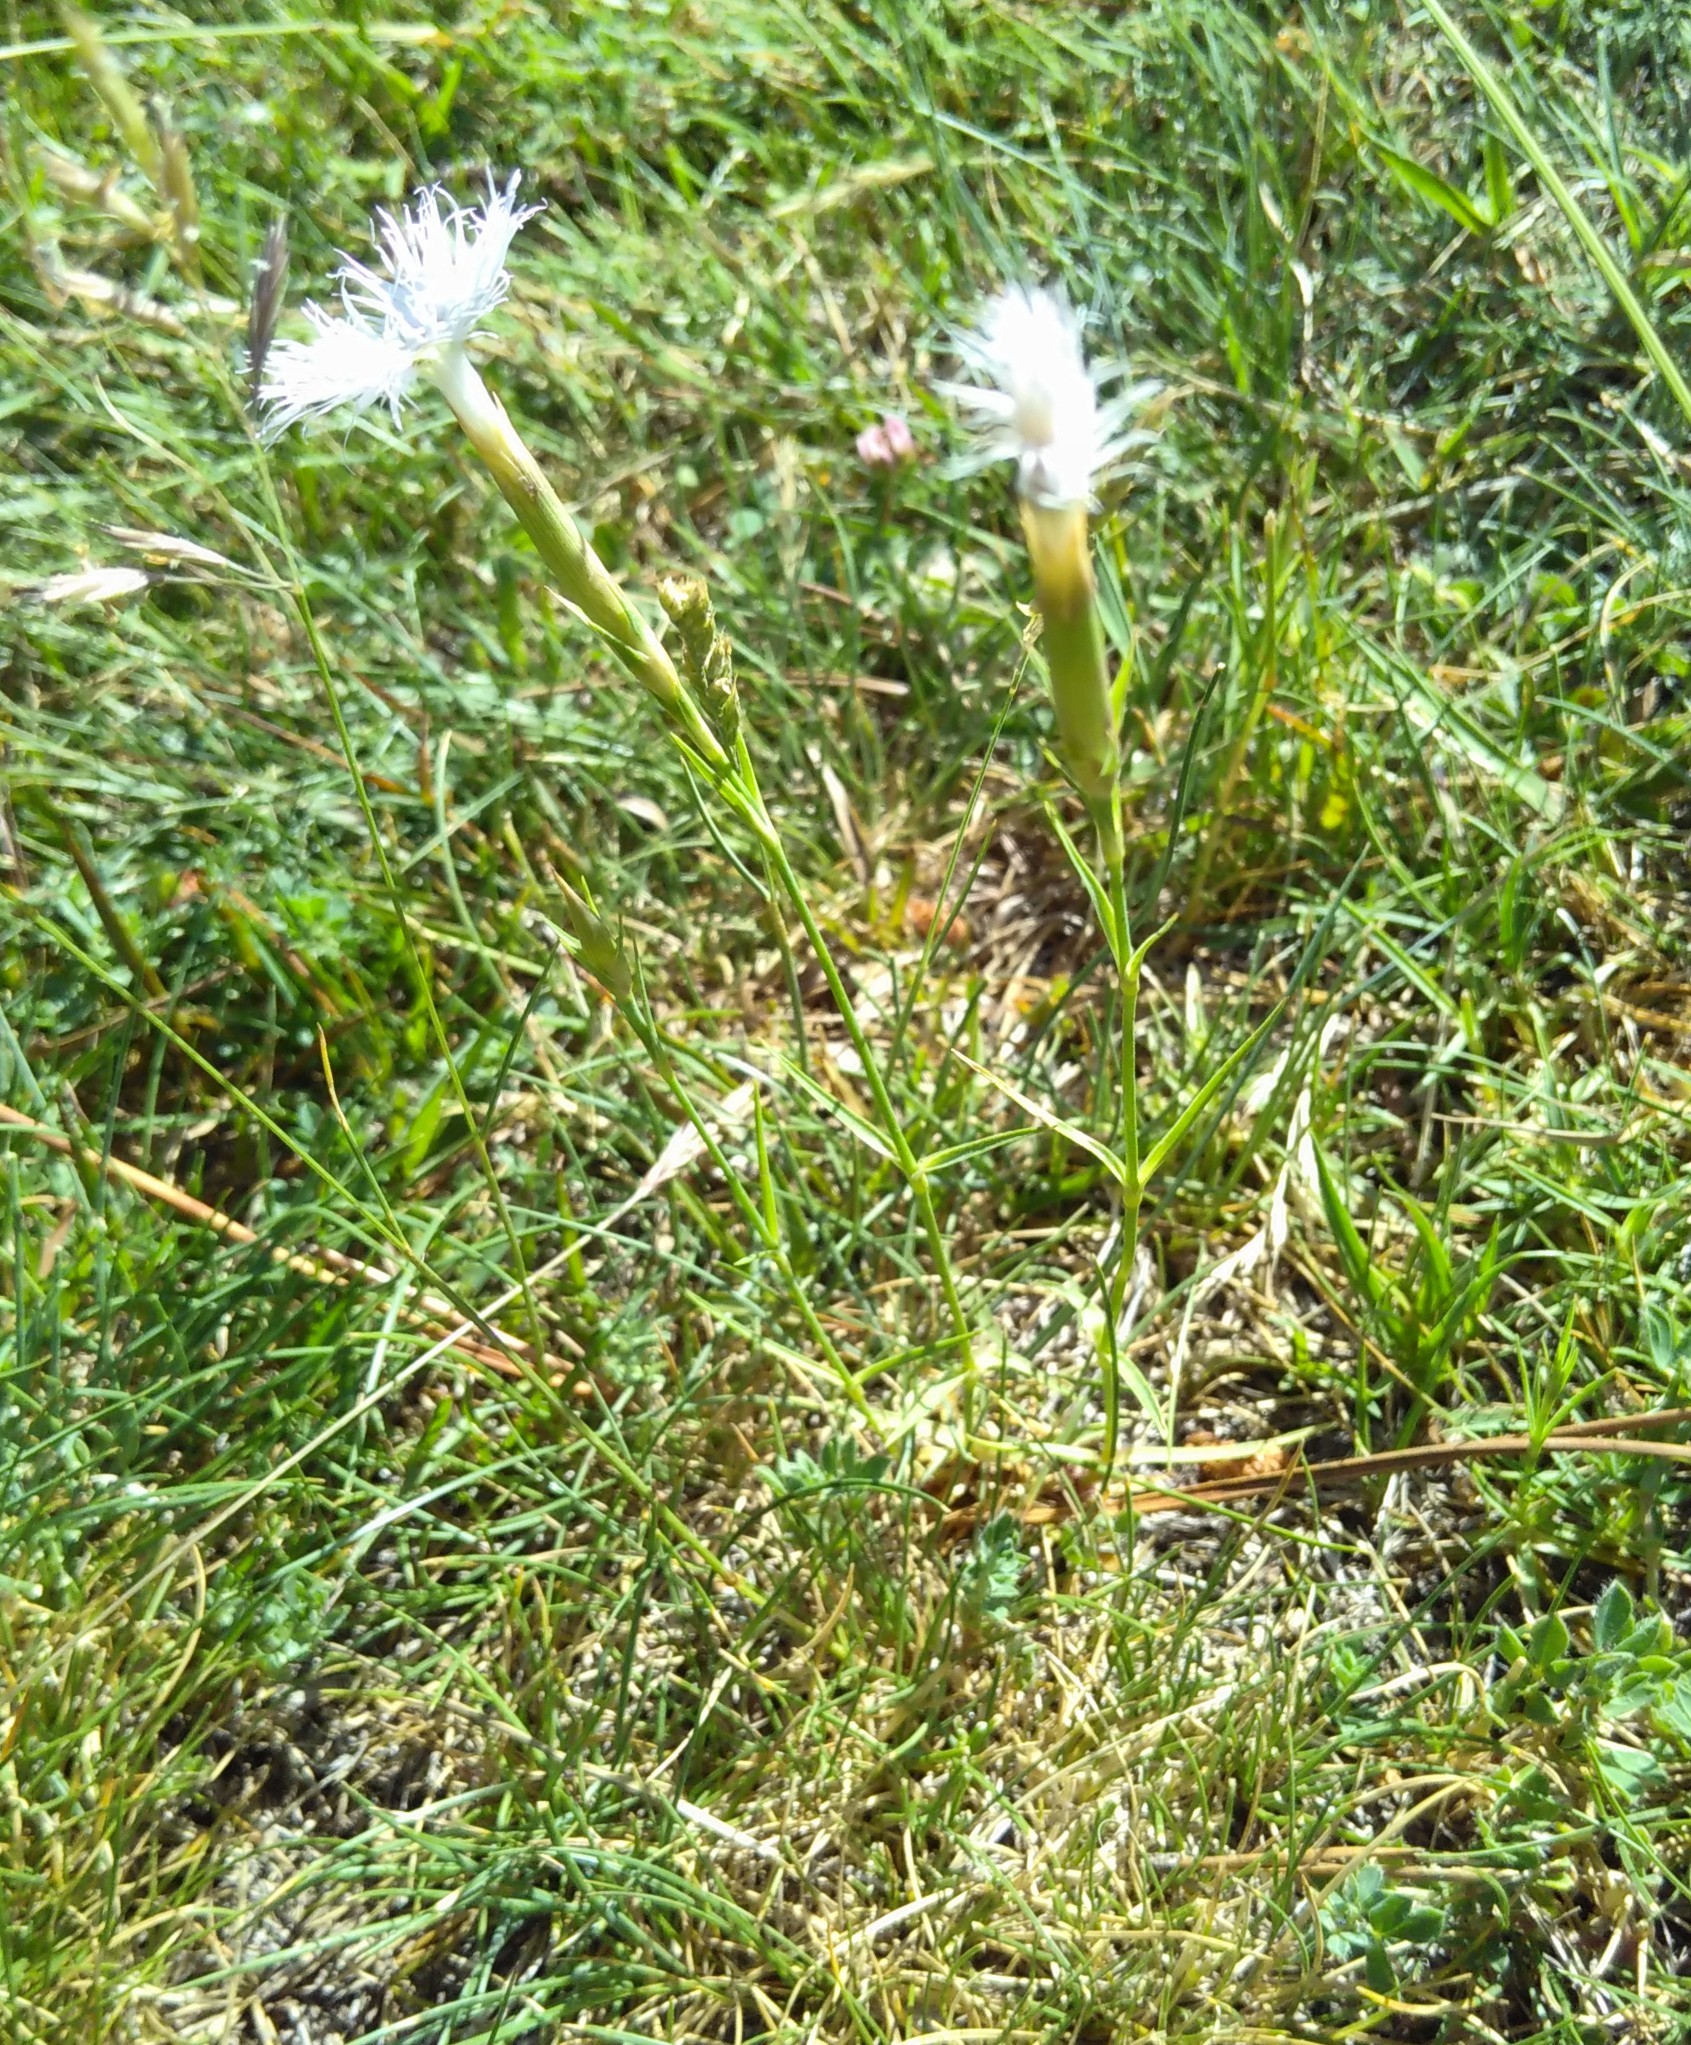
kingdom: Plantae
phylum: Tracheophyta
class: Magnoliopsida
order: Caryophyllales
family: Caryophyllaceae
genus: Dianthus
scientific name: Dianthus hyssopifolius
